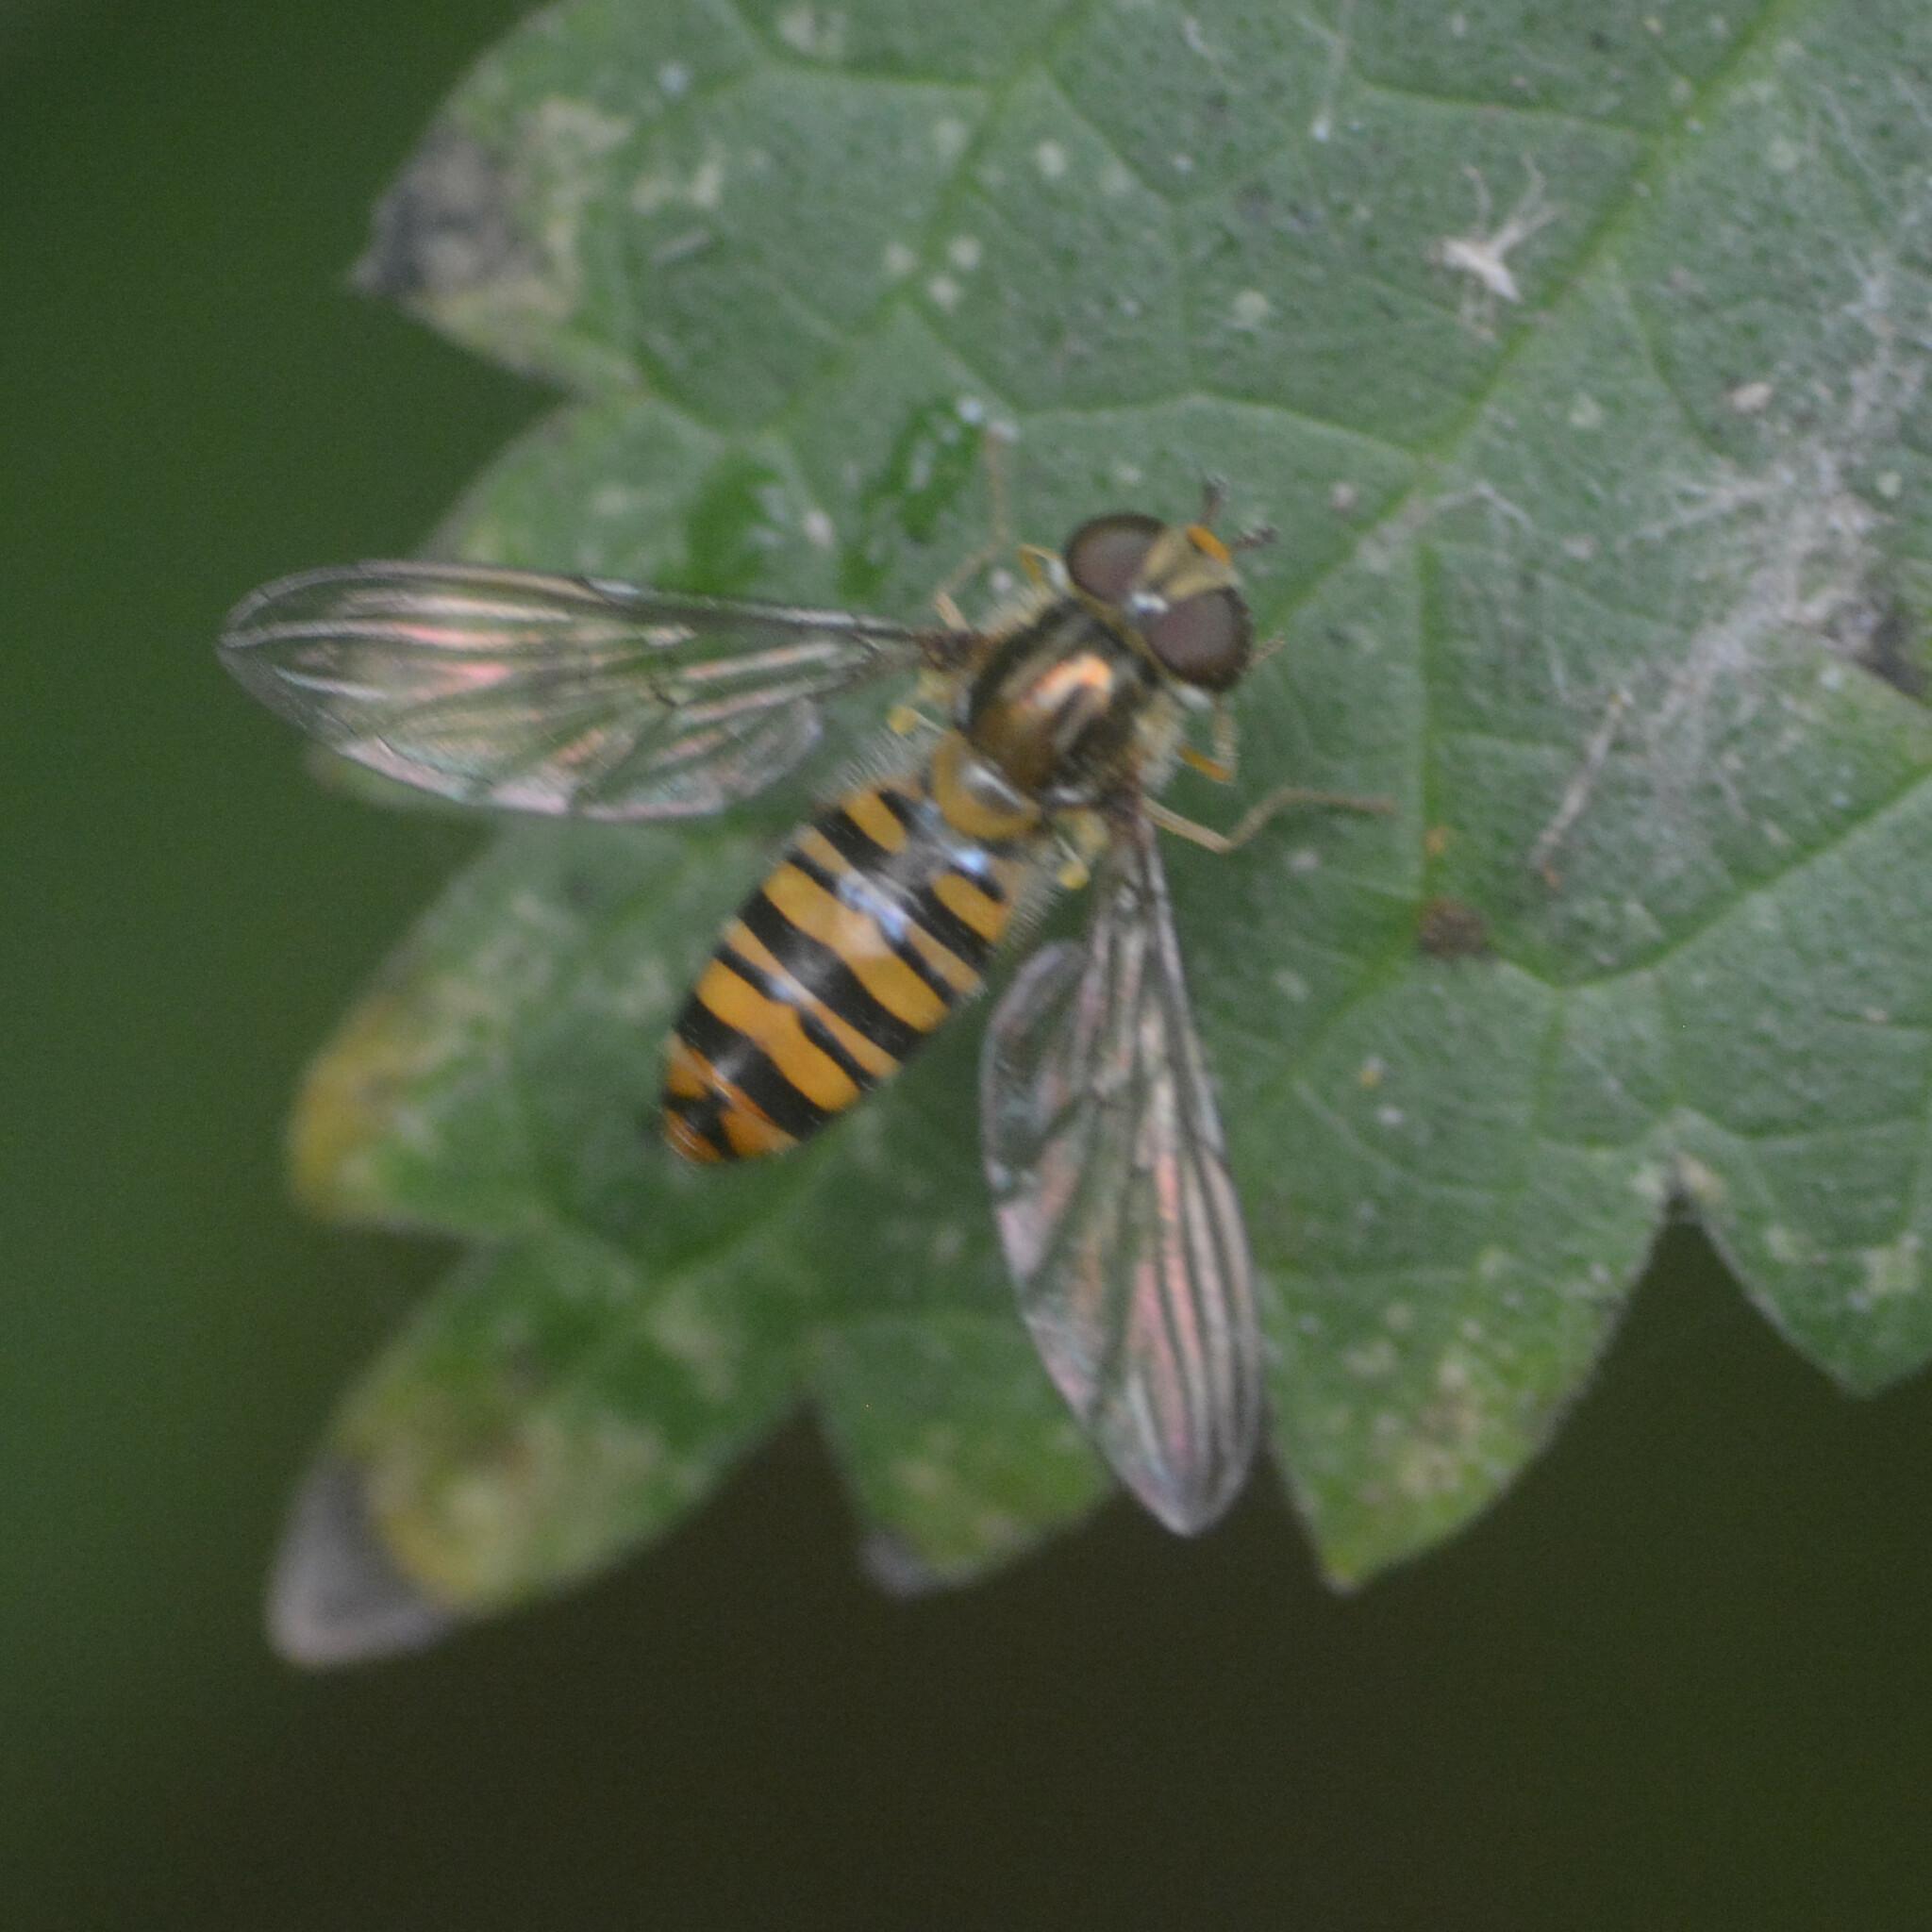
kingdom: Animalia
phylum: Arthropoda
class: Insecta
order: Diptera
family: Syrphidae
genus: Episyrphus
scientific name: Episyrphus balteatus
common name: Marmalade hoverfly
